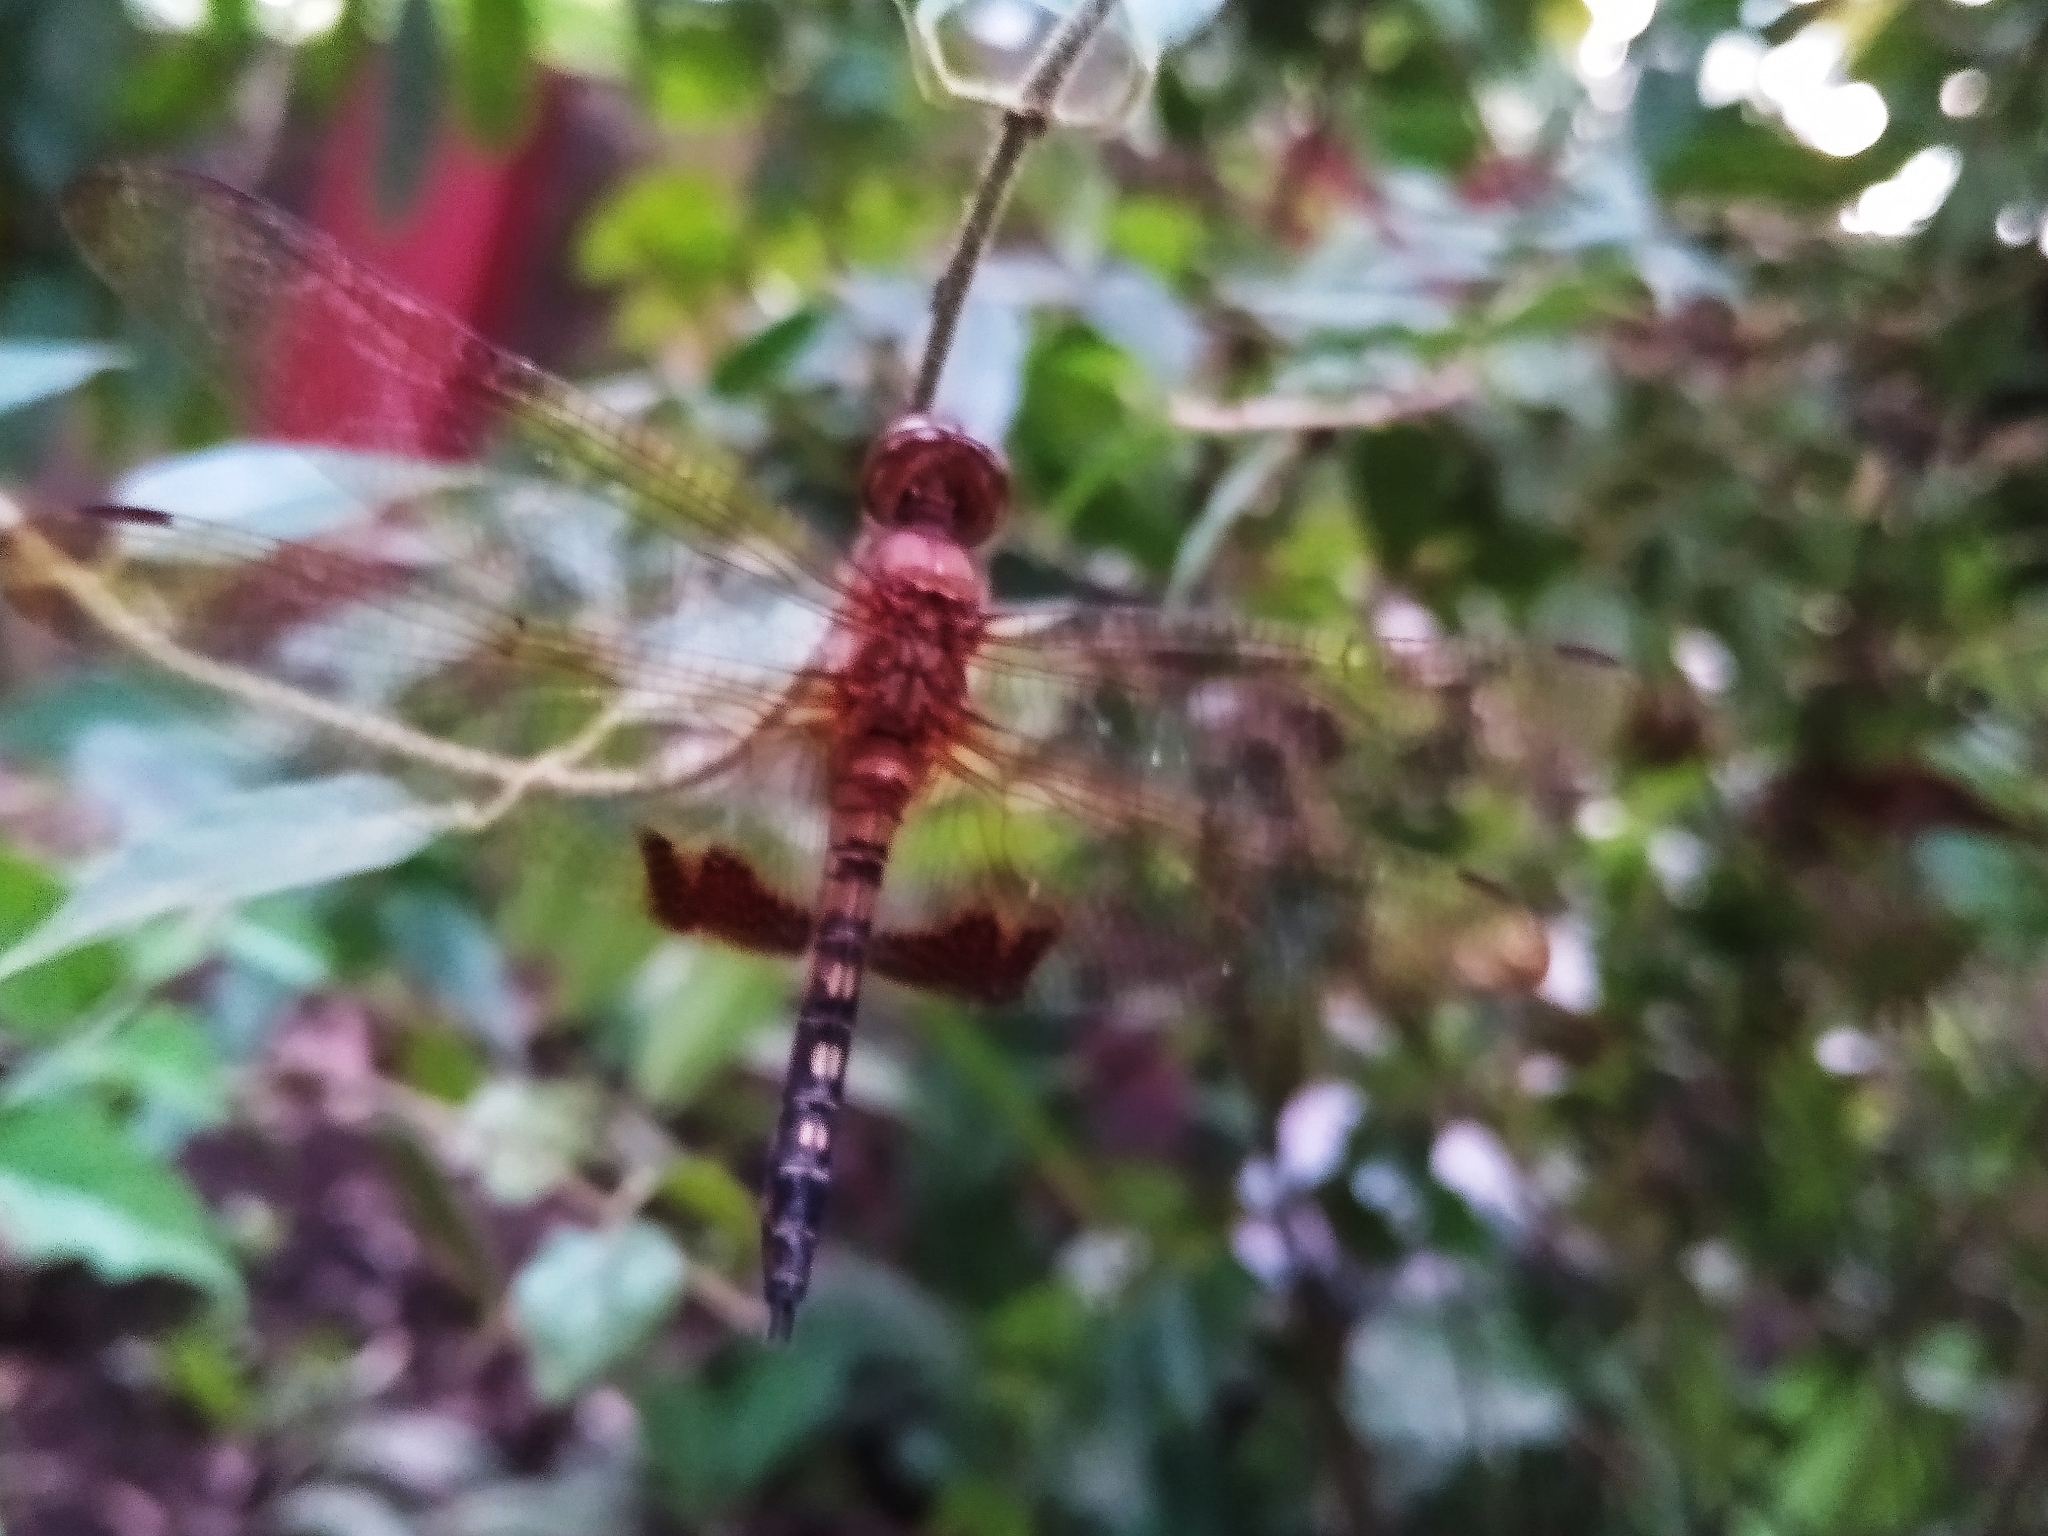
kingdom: Animalia
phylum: Arthropoda
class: Insecta
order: Odonata
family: Libellulidae
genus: Hydrobasileus
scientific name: Hydrobasileus croceus
